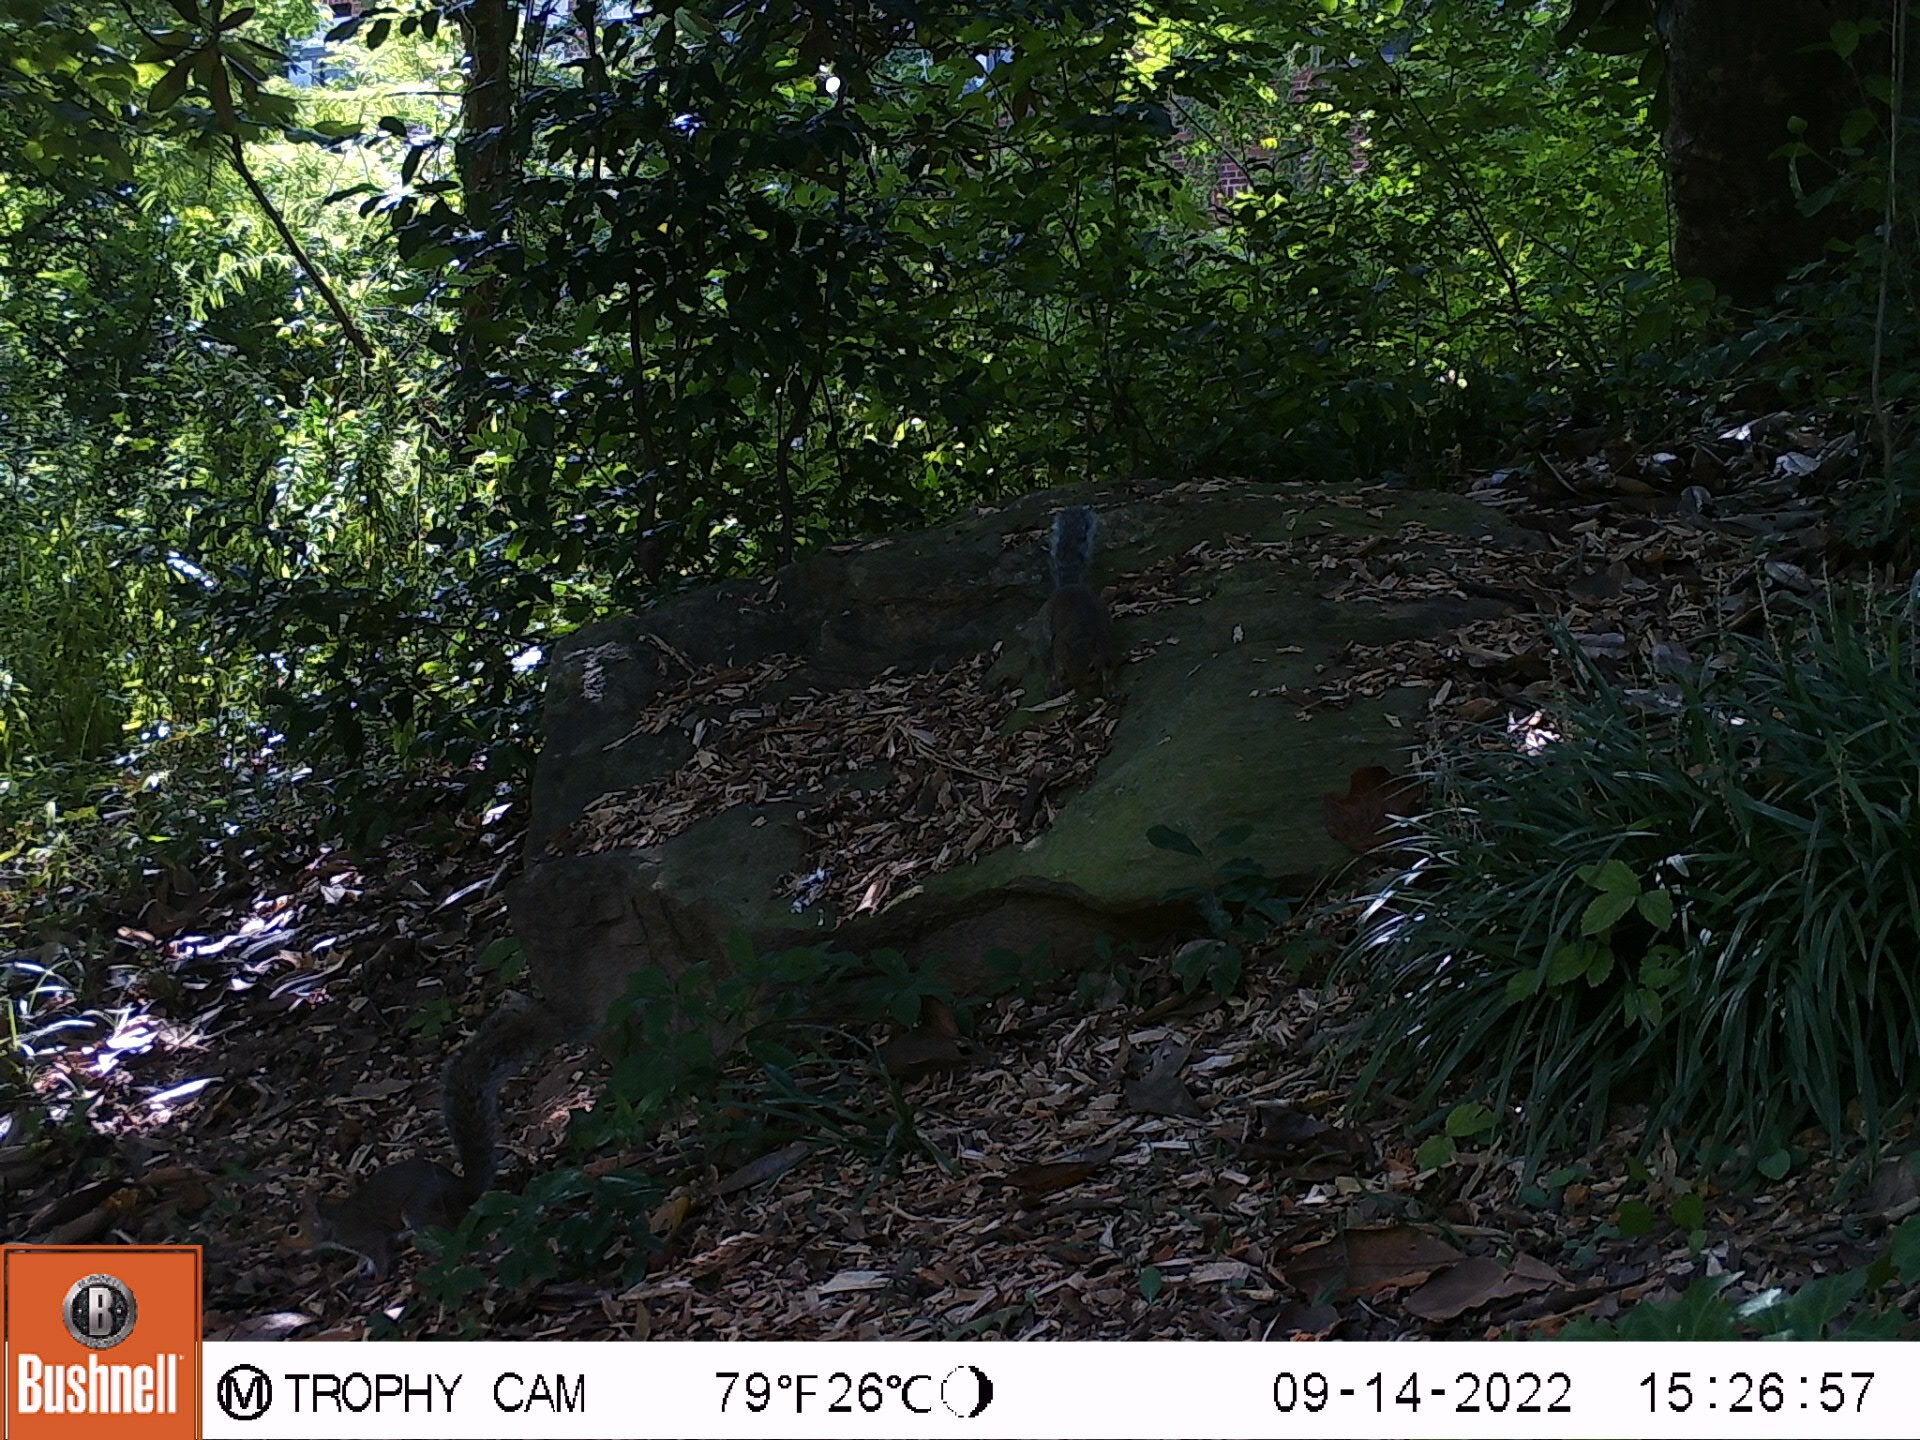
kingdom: Animalia
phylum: Chordata
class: Mammalia
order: Rodentia
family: Sciuridae
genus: Sciurus
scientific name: Sciurus carolinensis
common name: Eastern gray squirrel
